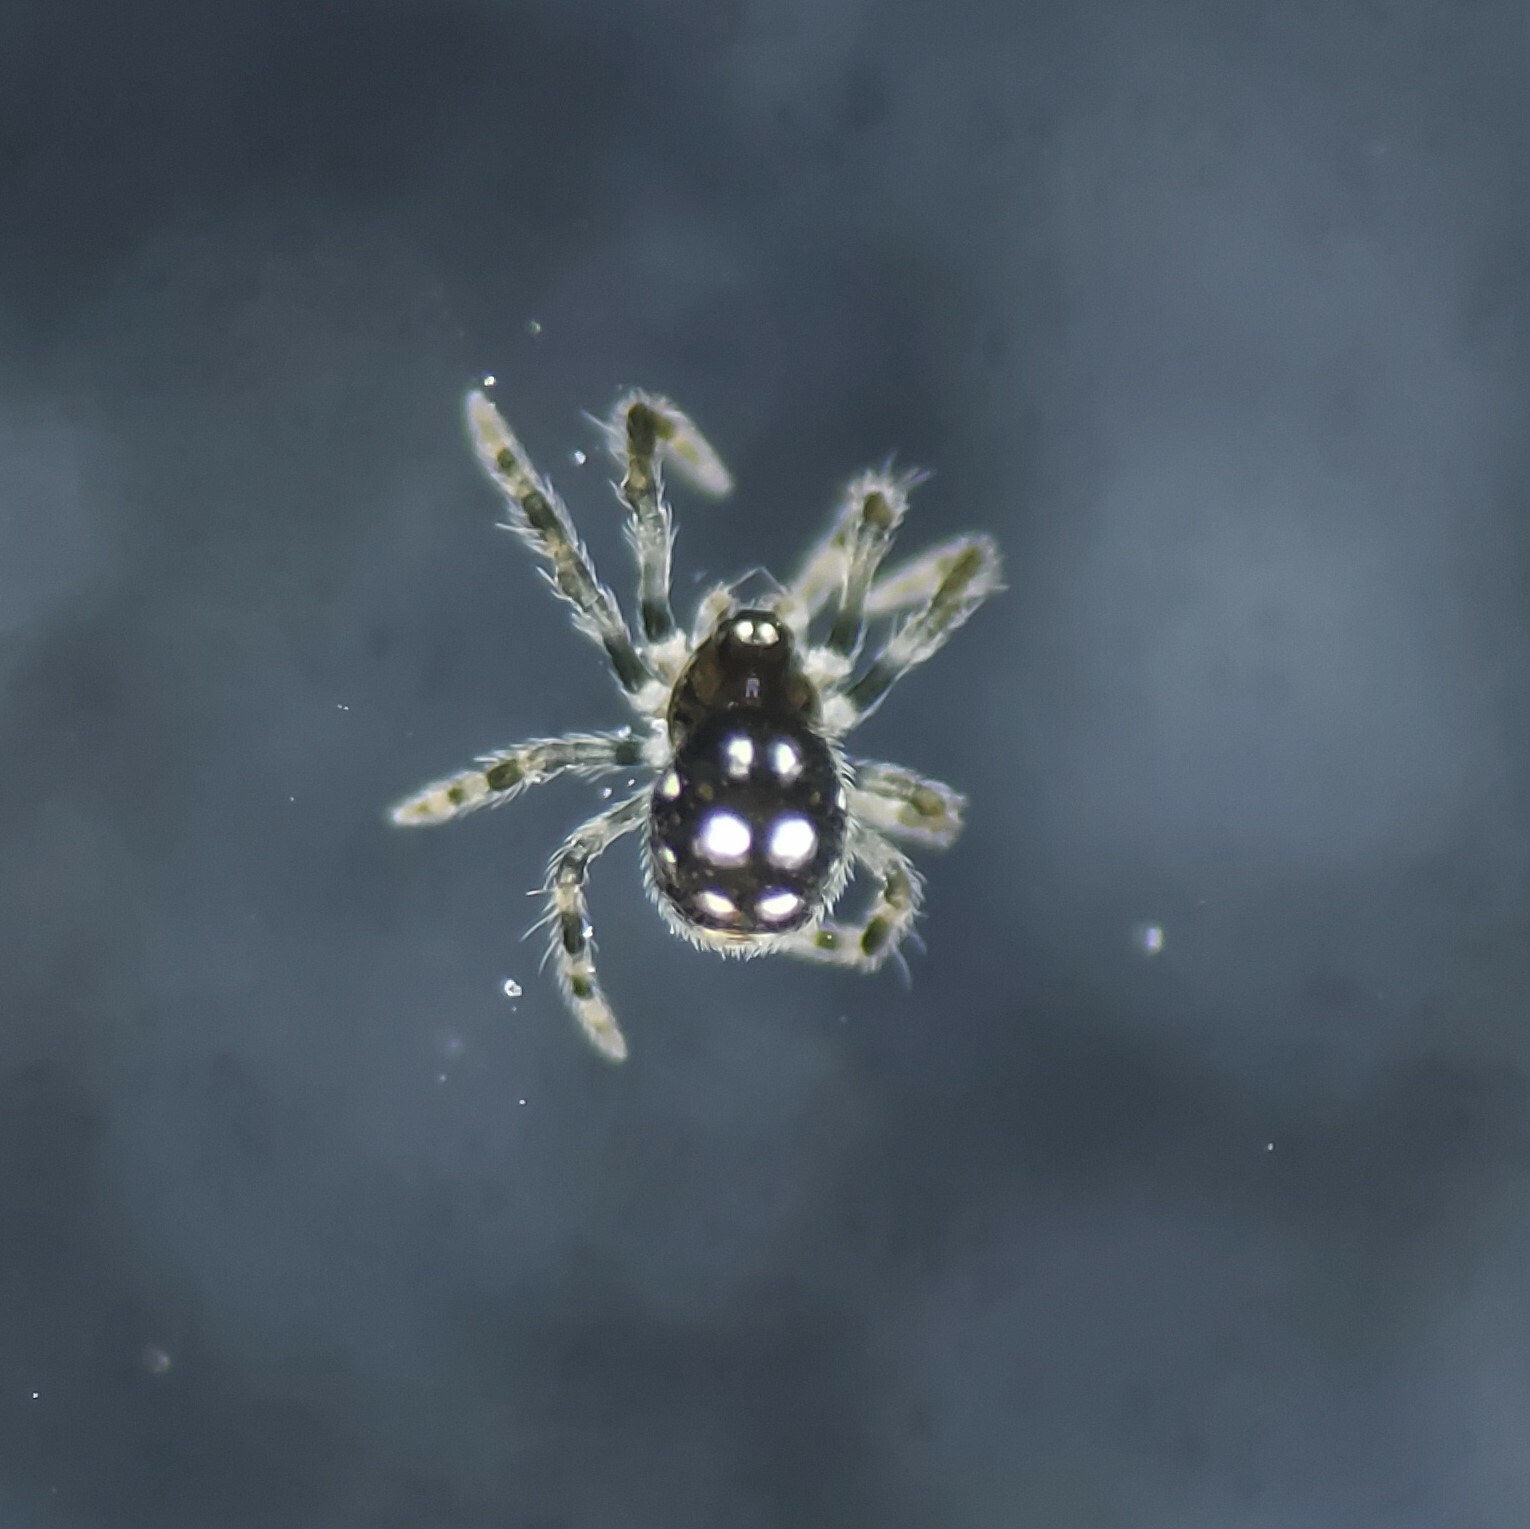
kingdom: Animalia
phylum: Arthropoda
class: Arachnida
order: Araneae
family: Mysmenidae
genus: Microdipoena
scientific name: Microdipoena guttata
